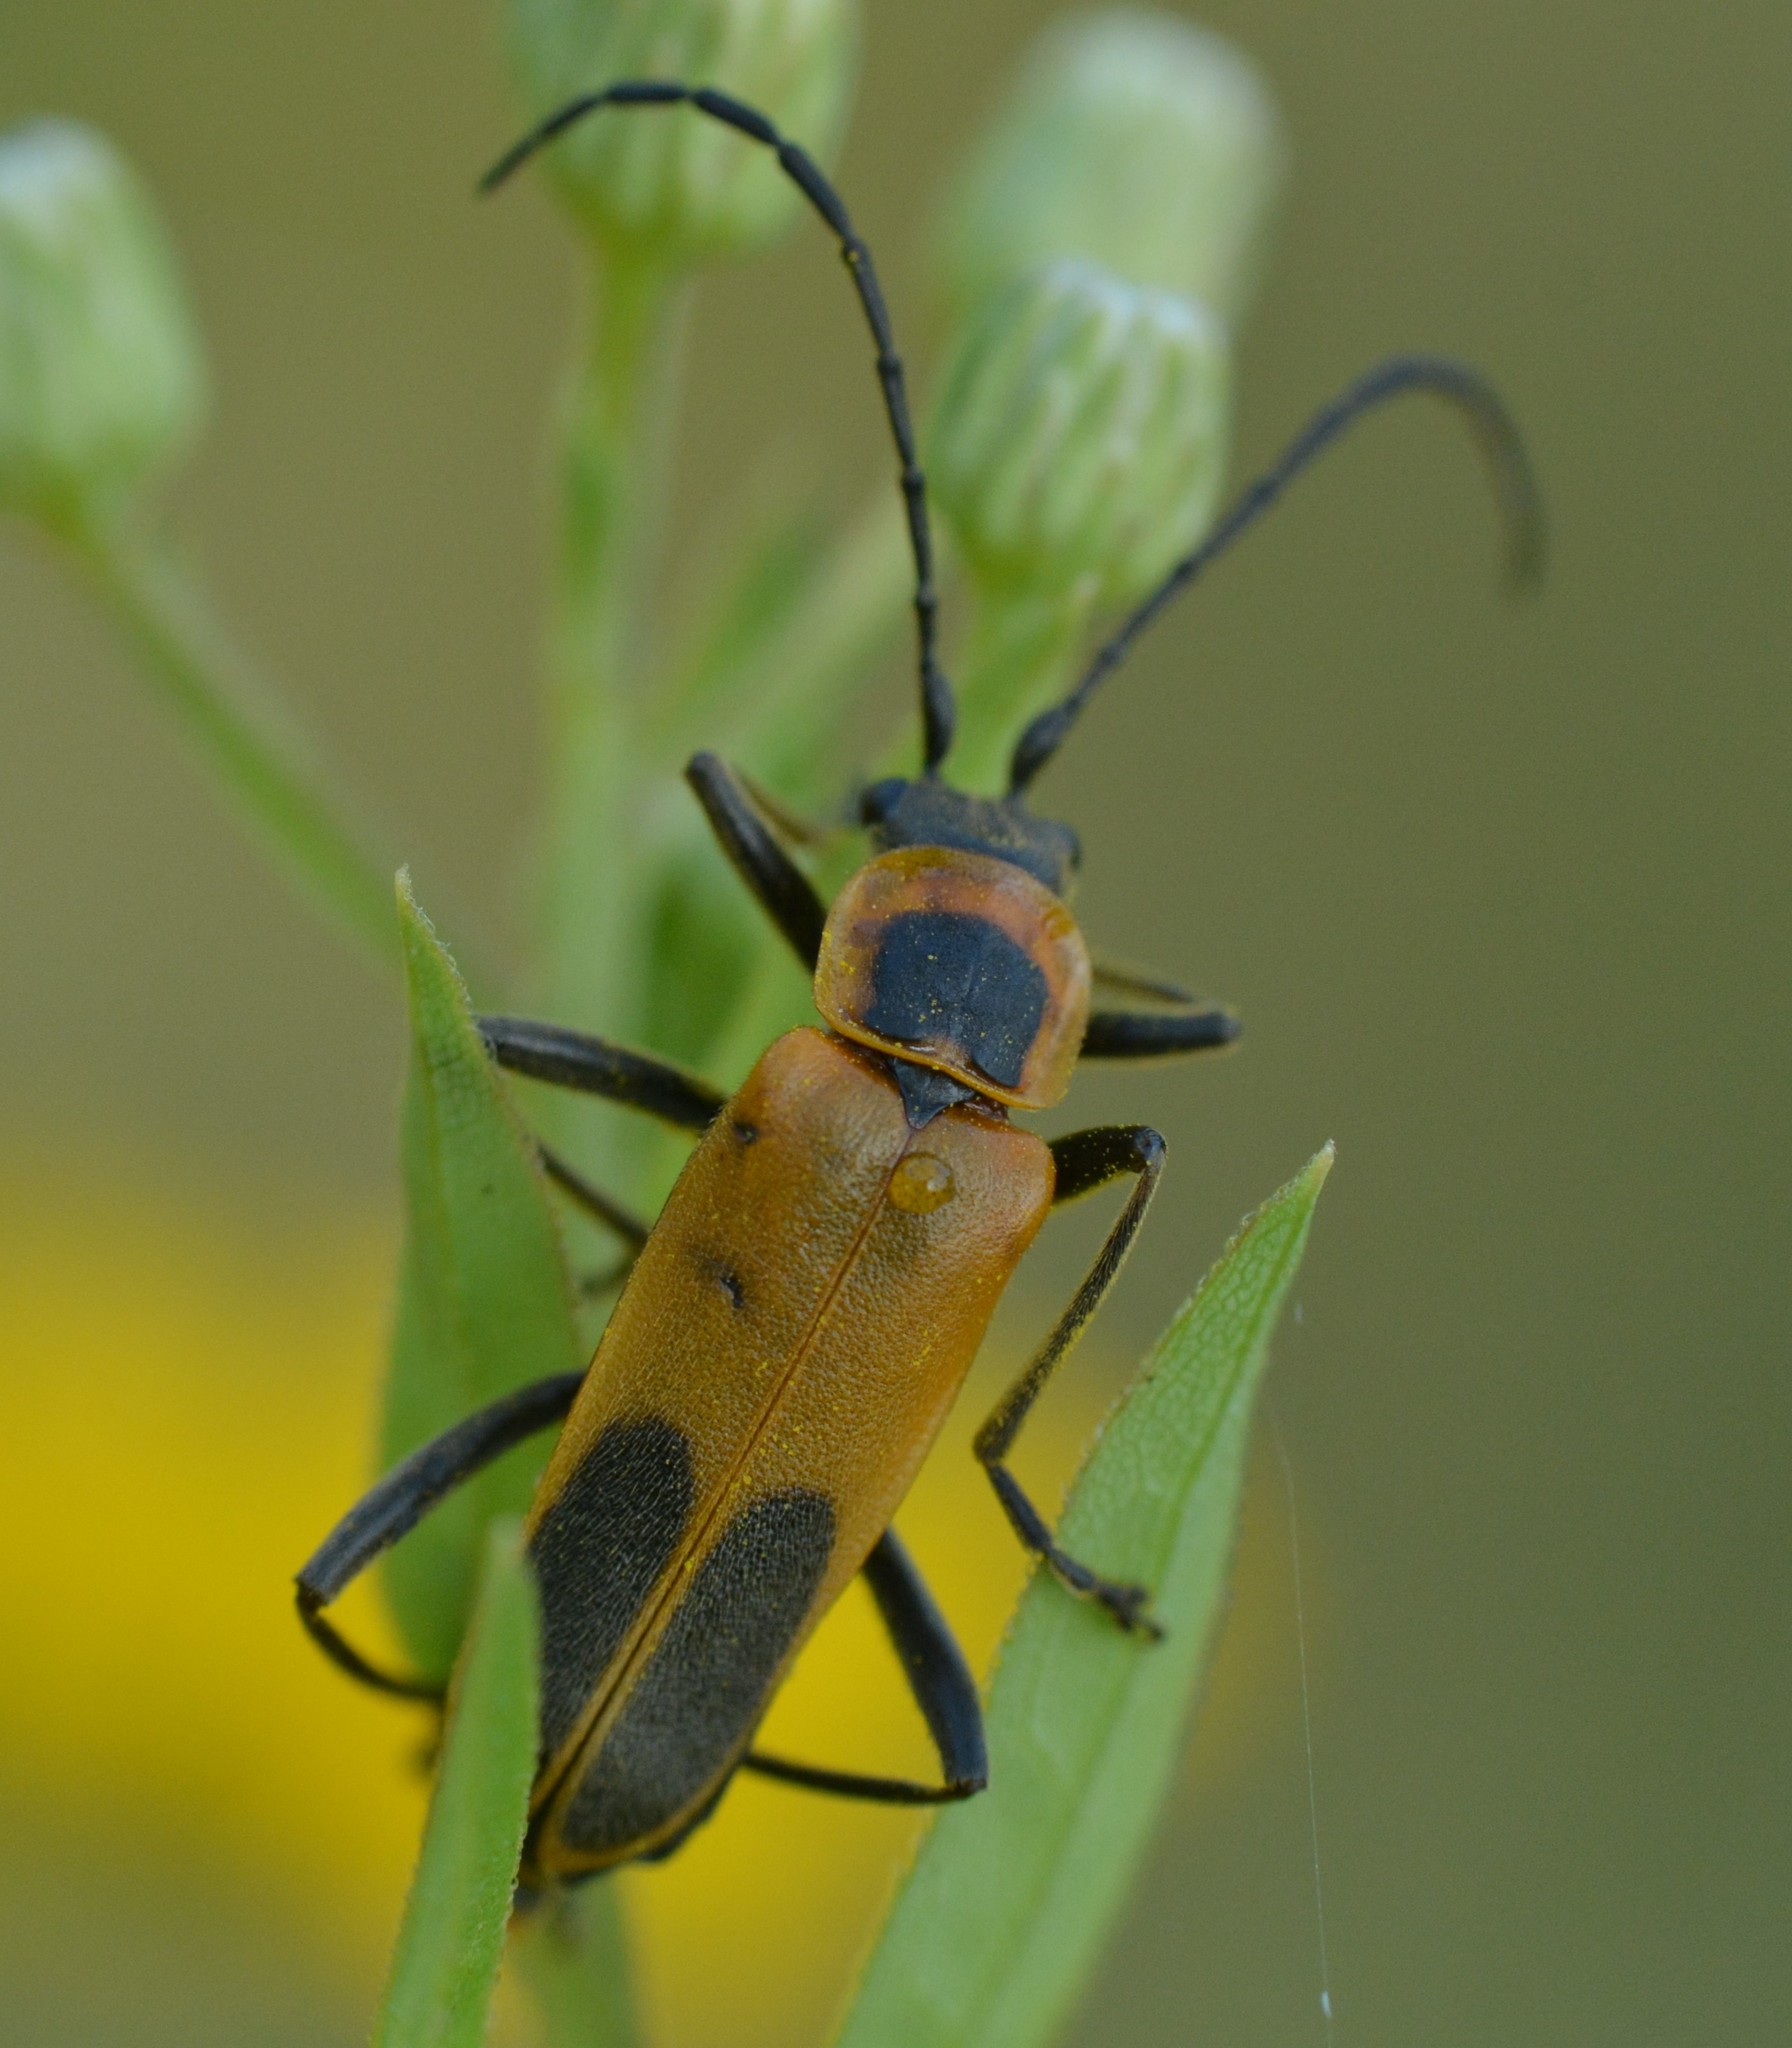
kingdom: Animalia
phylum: Arthropoda
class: Insecta
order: Coleoptera
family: Cantharidae
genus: Chauliognathus
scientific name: Chauliognathus pensylvanicus
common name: Goldenrod soldier beetle
